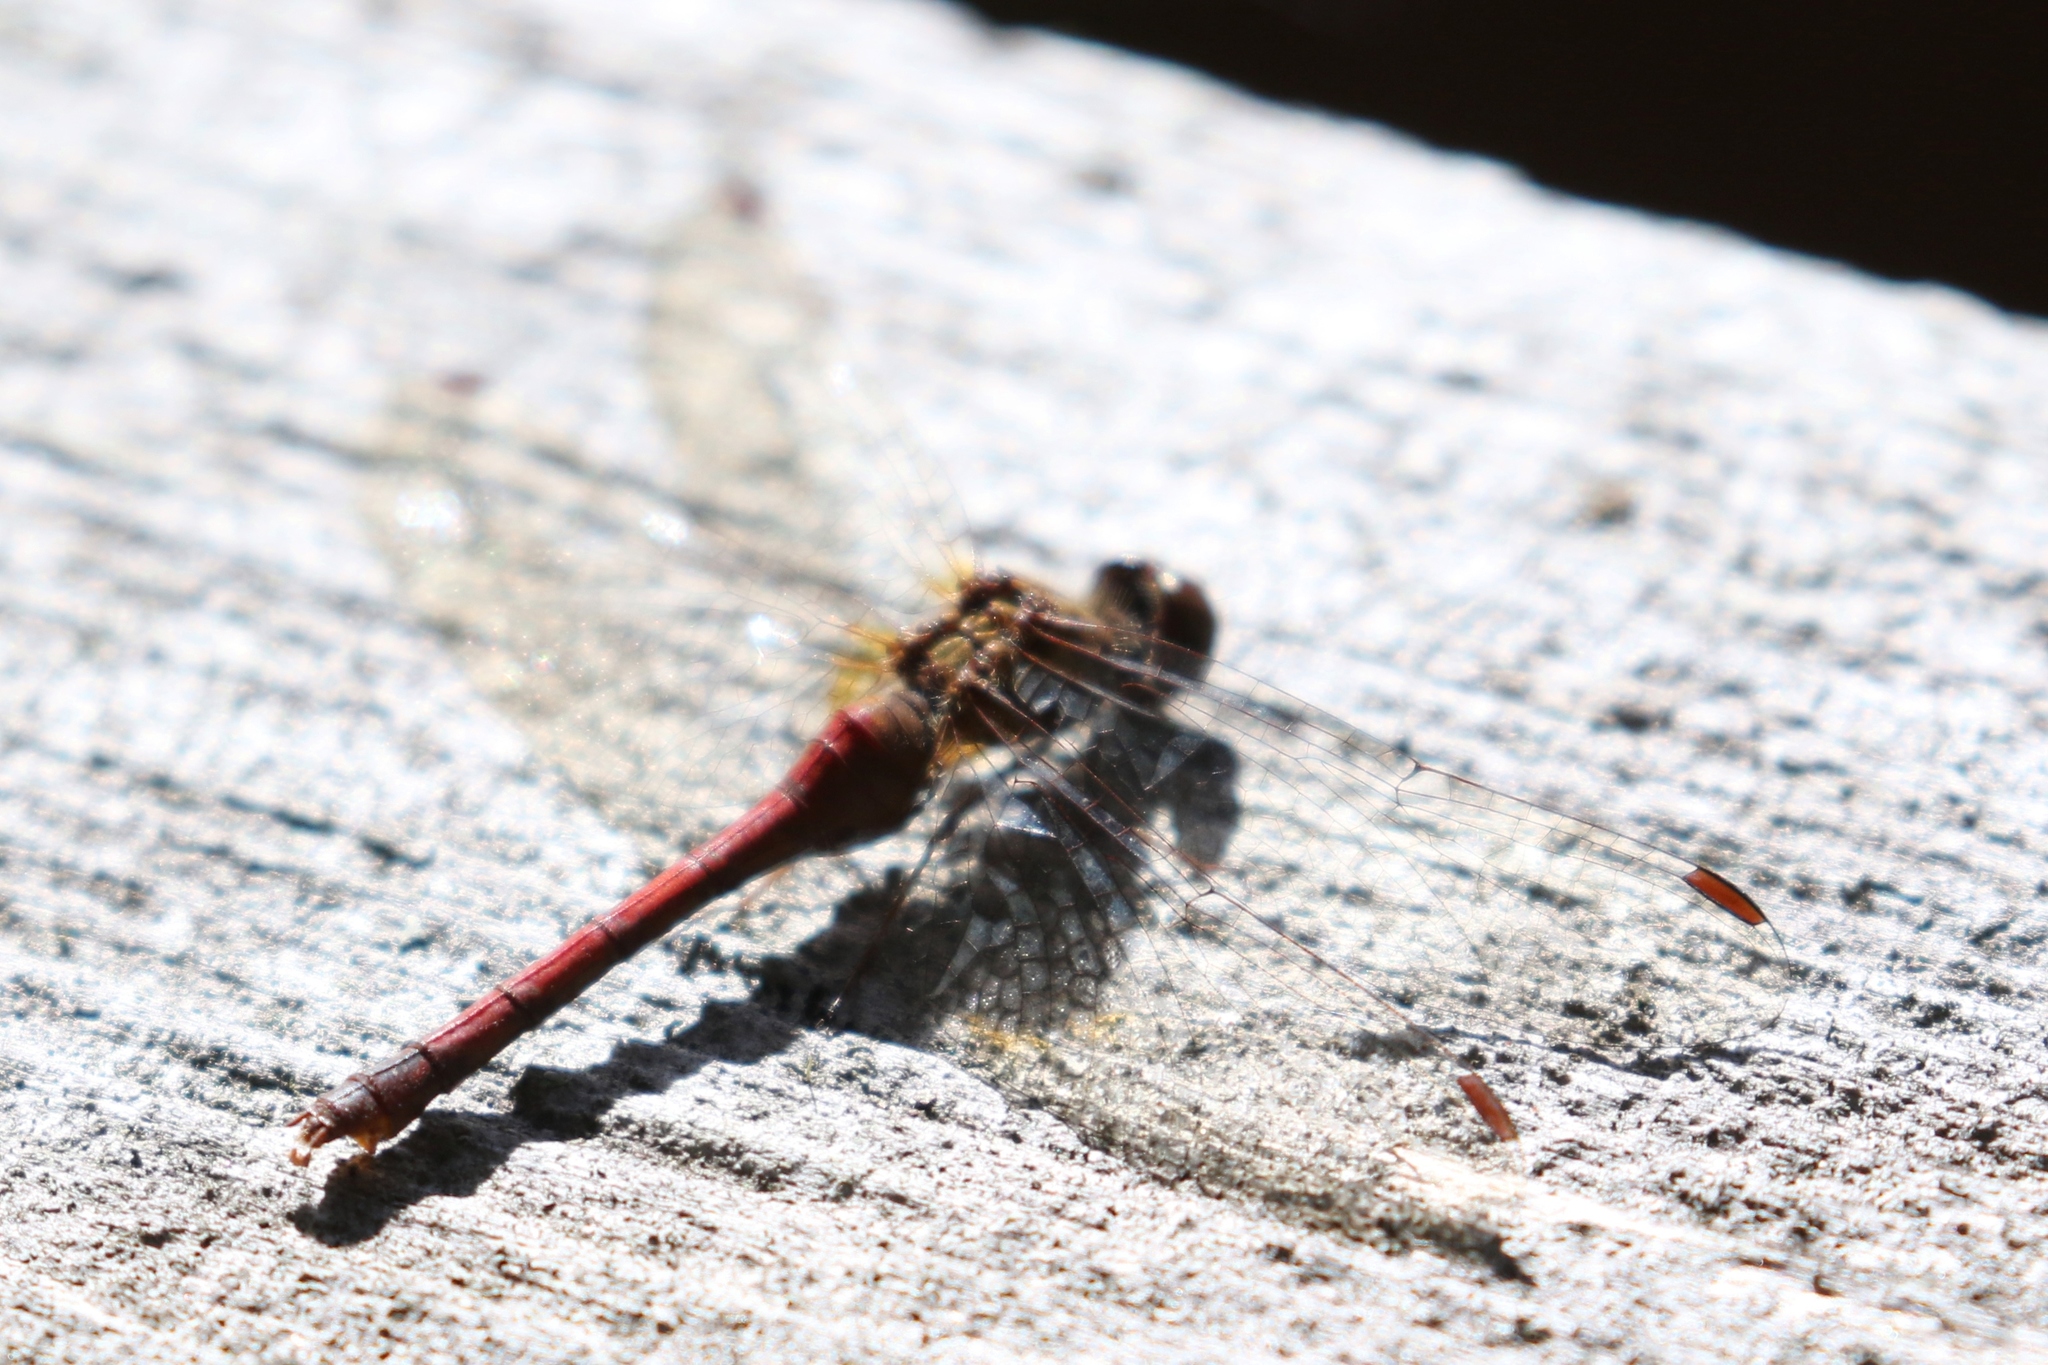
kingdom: Animalia
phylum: Arthropoda
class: Insecta
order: Odonata
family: Libellulidae
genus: Sympetrum
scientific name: Sympetrum vicinum
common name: Autumn meadowhawk
